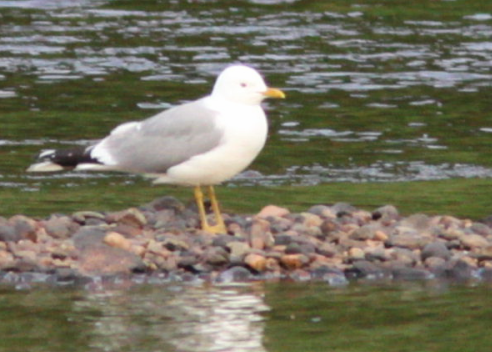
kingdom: Animalia
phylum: Chordata
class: Aves
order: Charadriiformes
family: Laridae
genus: Larus
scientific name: Larus canus
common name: Mew gull
